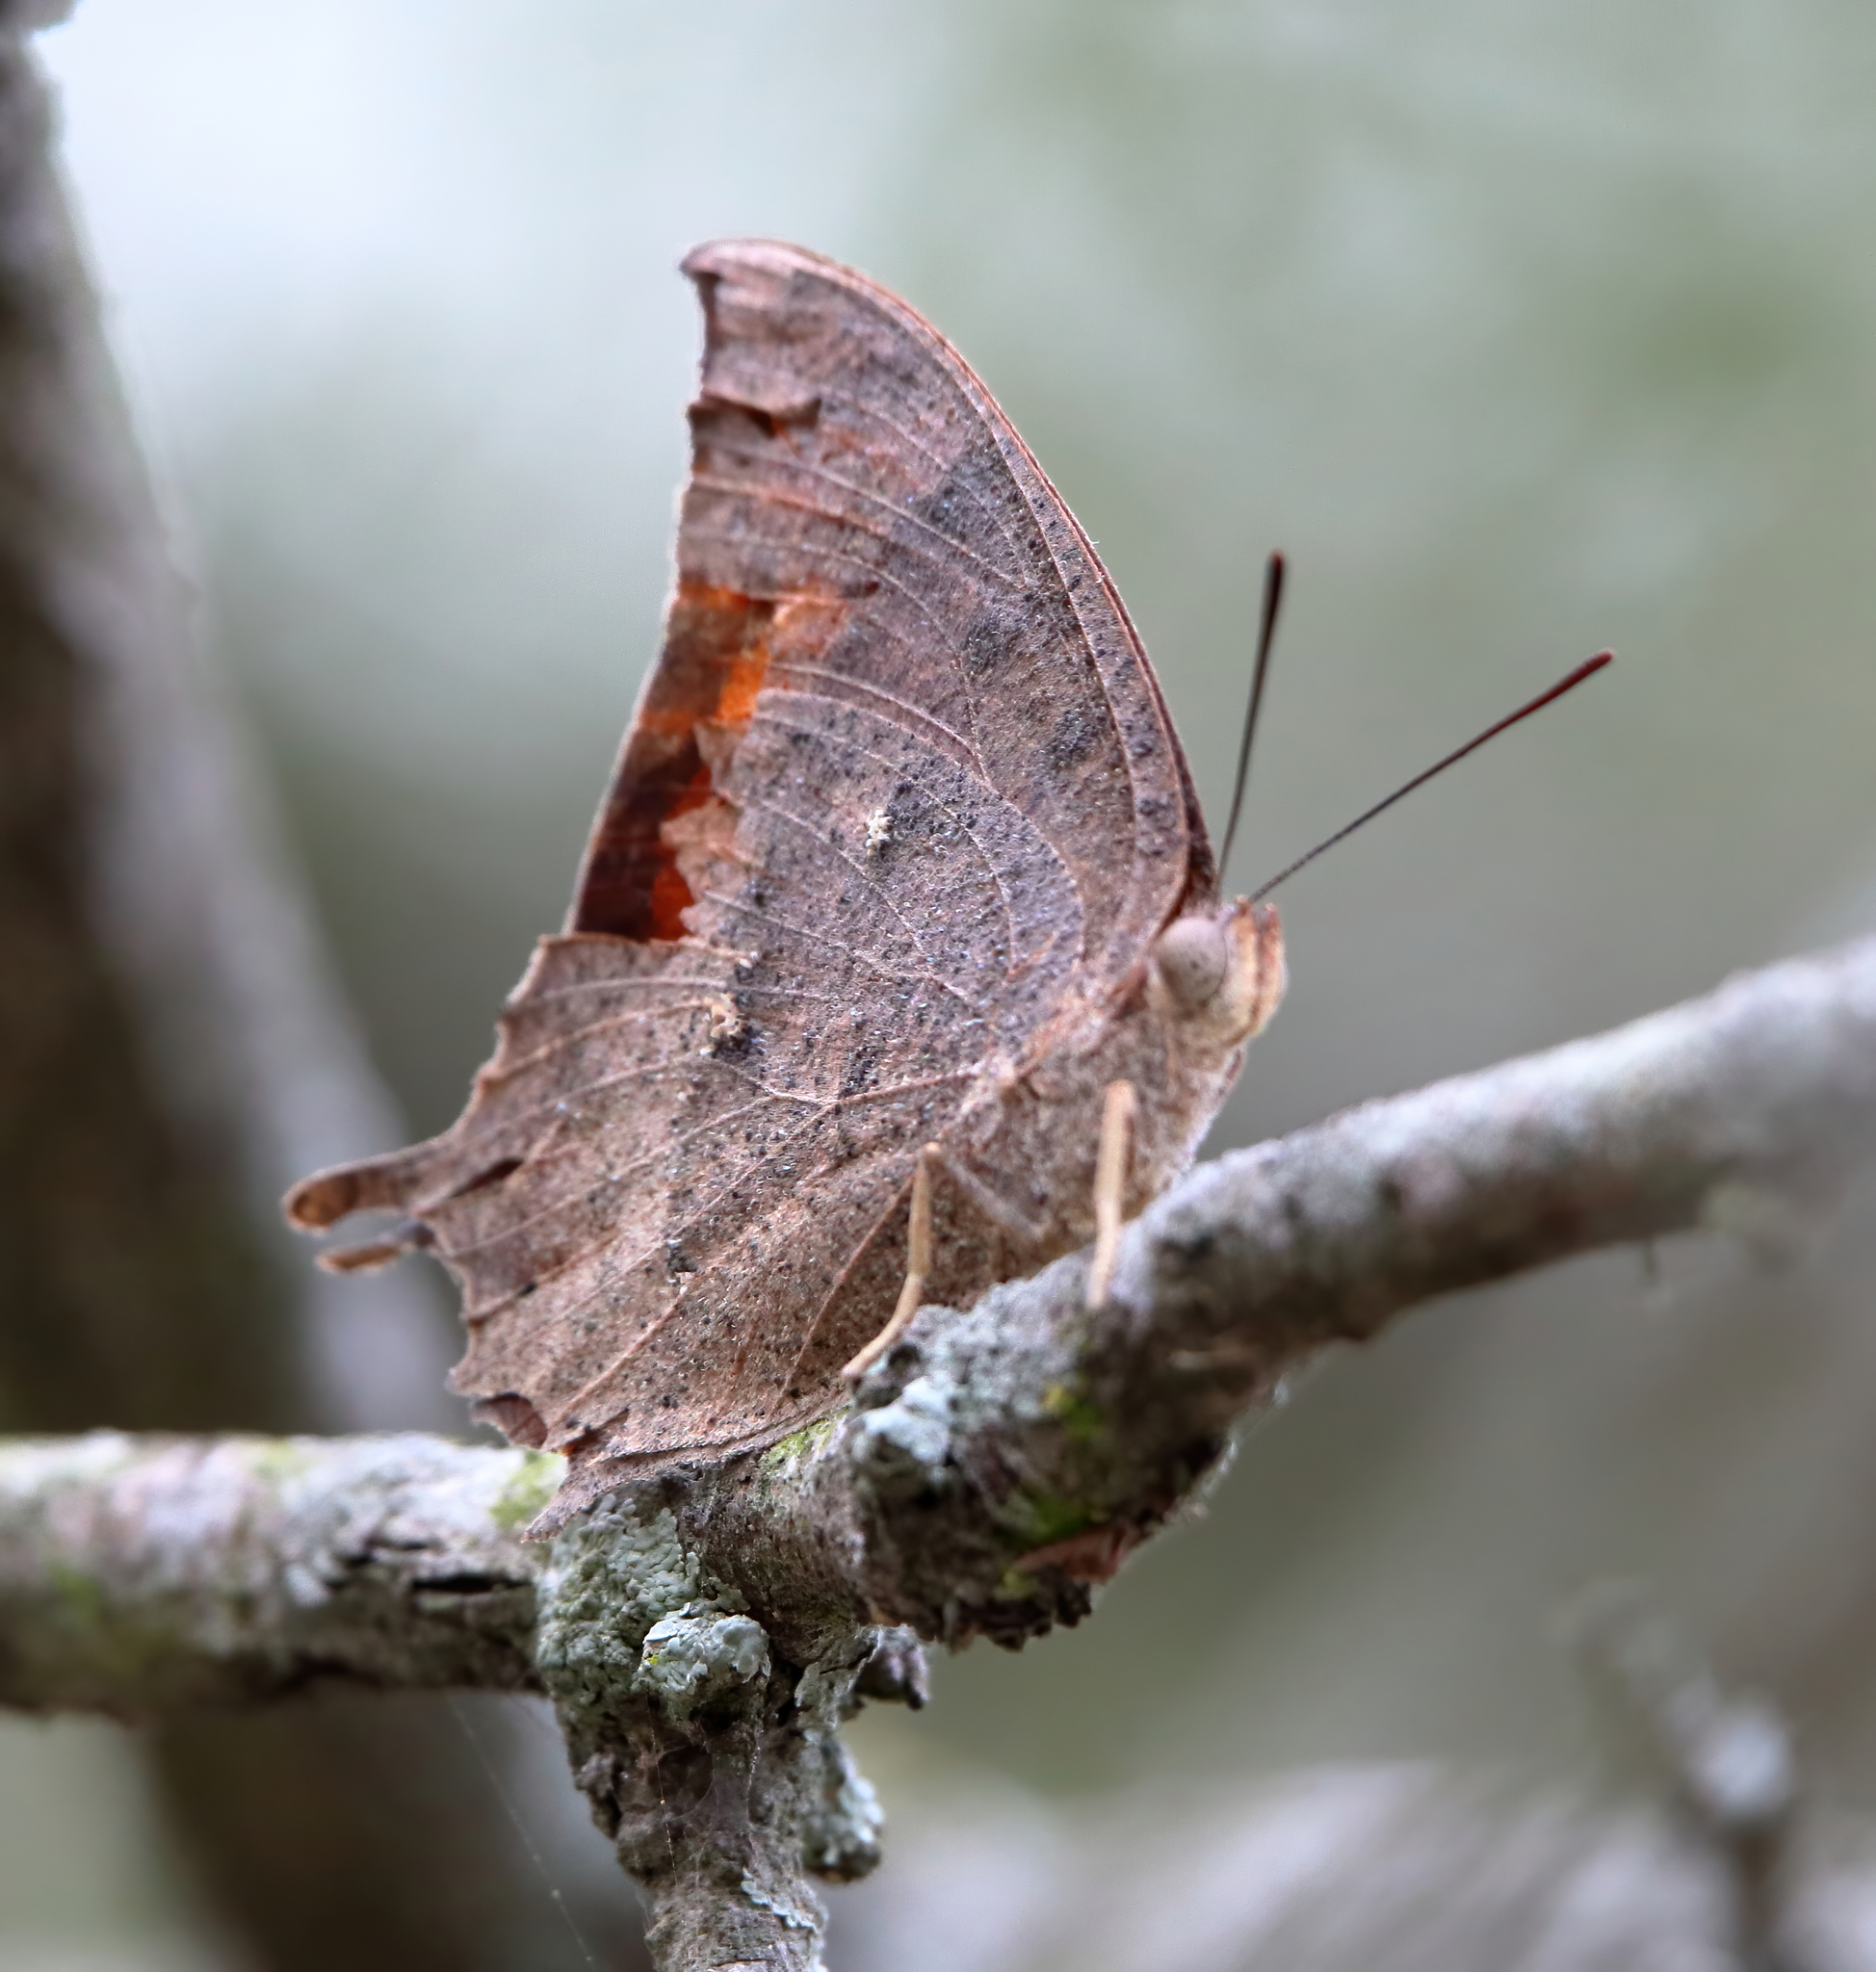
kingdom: Animalia
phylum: Arthropoda
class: Insecta
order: Lepidoptera
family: Nymphalidae
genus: Anaea
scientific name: Anaea aidea
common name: Tropical leafwing
